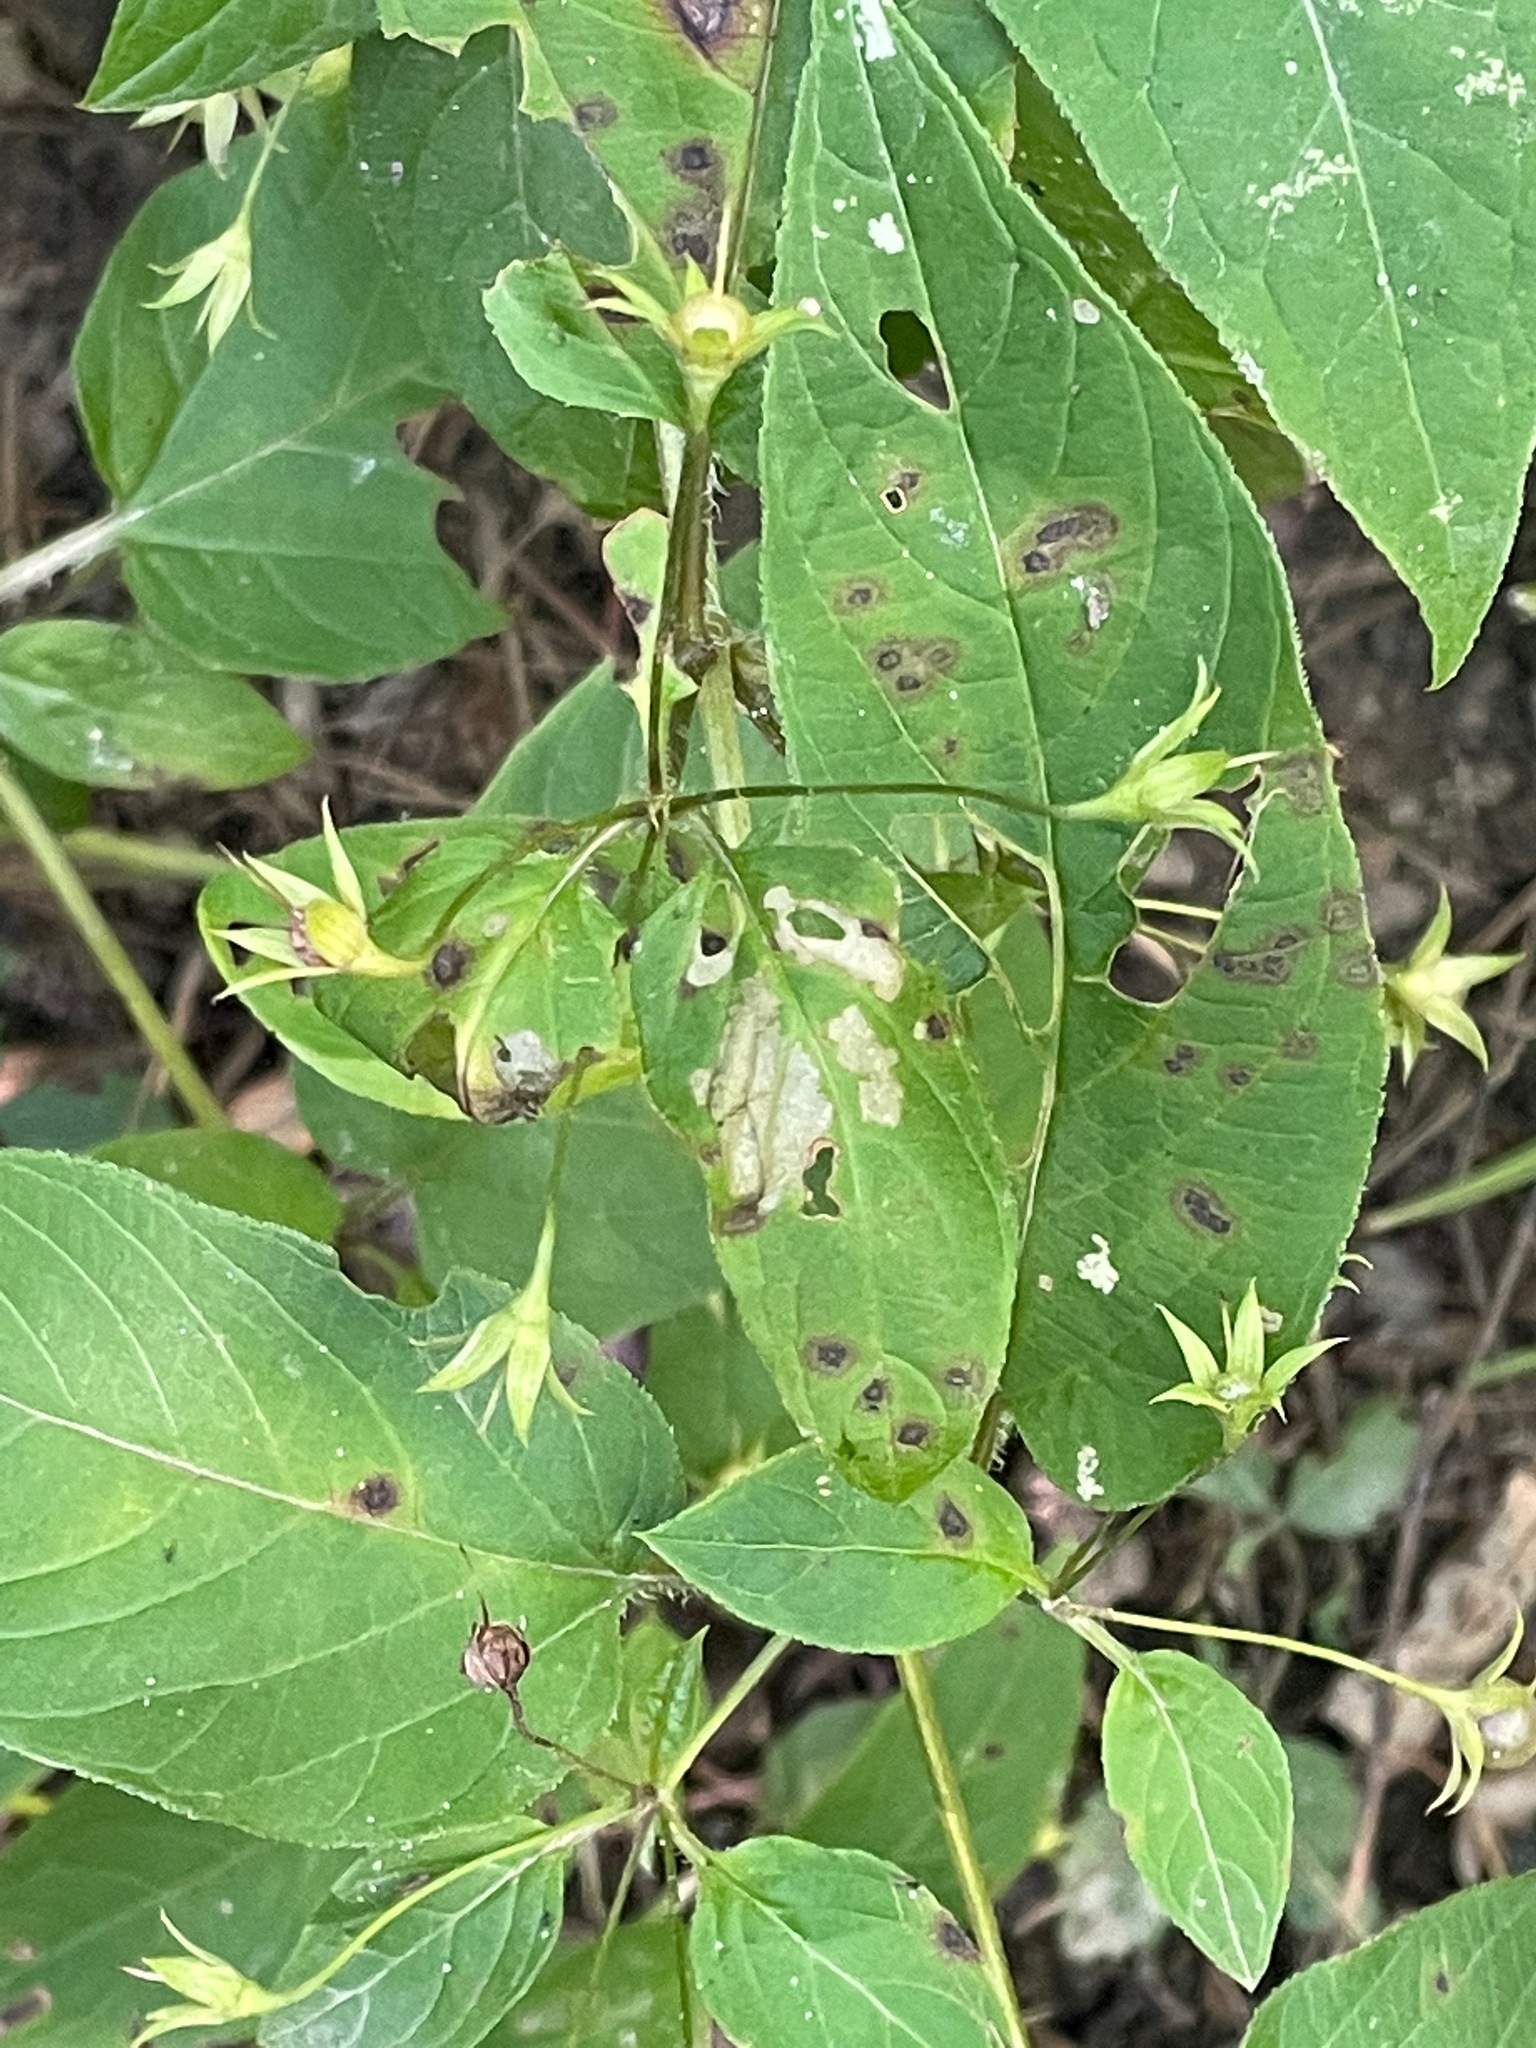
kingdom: Plantae
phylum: Tracheophyta
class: Magnoliopsida
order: Ericales
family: Primulaceae
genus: Lysimachia
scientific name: Lysimachia ciliata
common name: Fringed loosestrife
